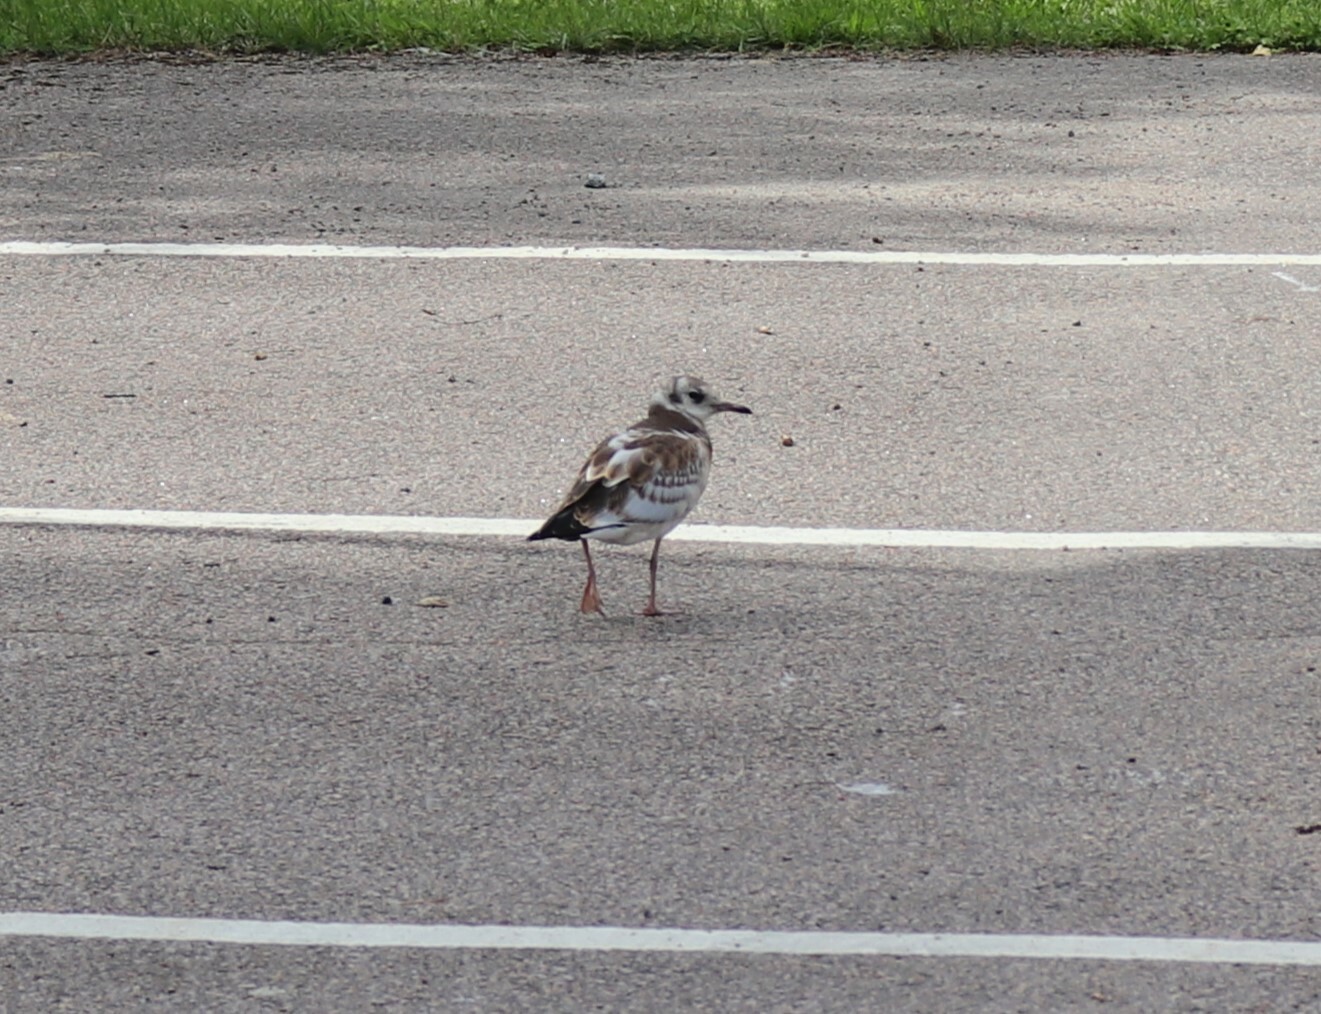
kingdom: Animalia
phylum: Chordata
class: Aves
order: Charadriiformes
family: Laridae
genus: Chroicocephalus
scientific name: Chroicocephalus ridibundus
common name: Black-headed gull
